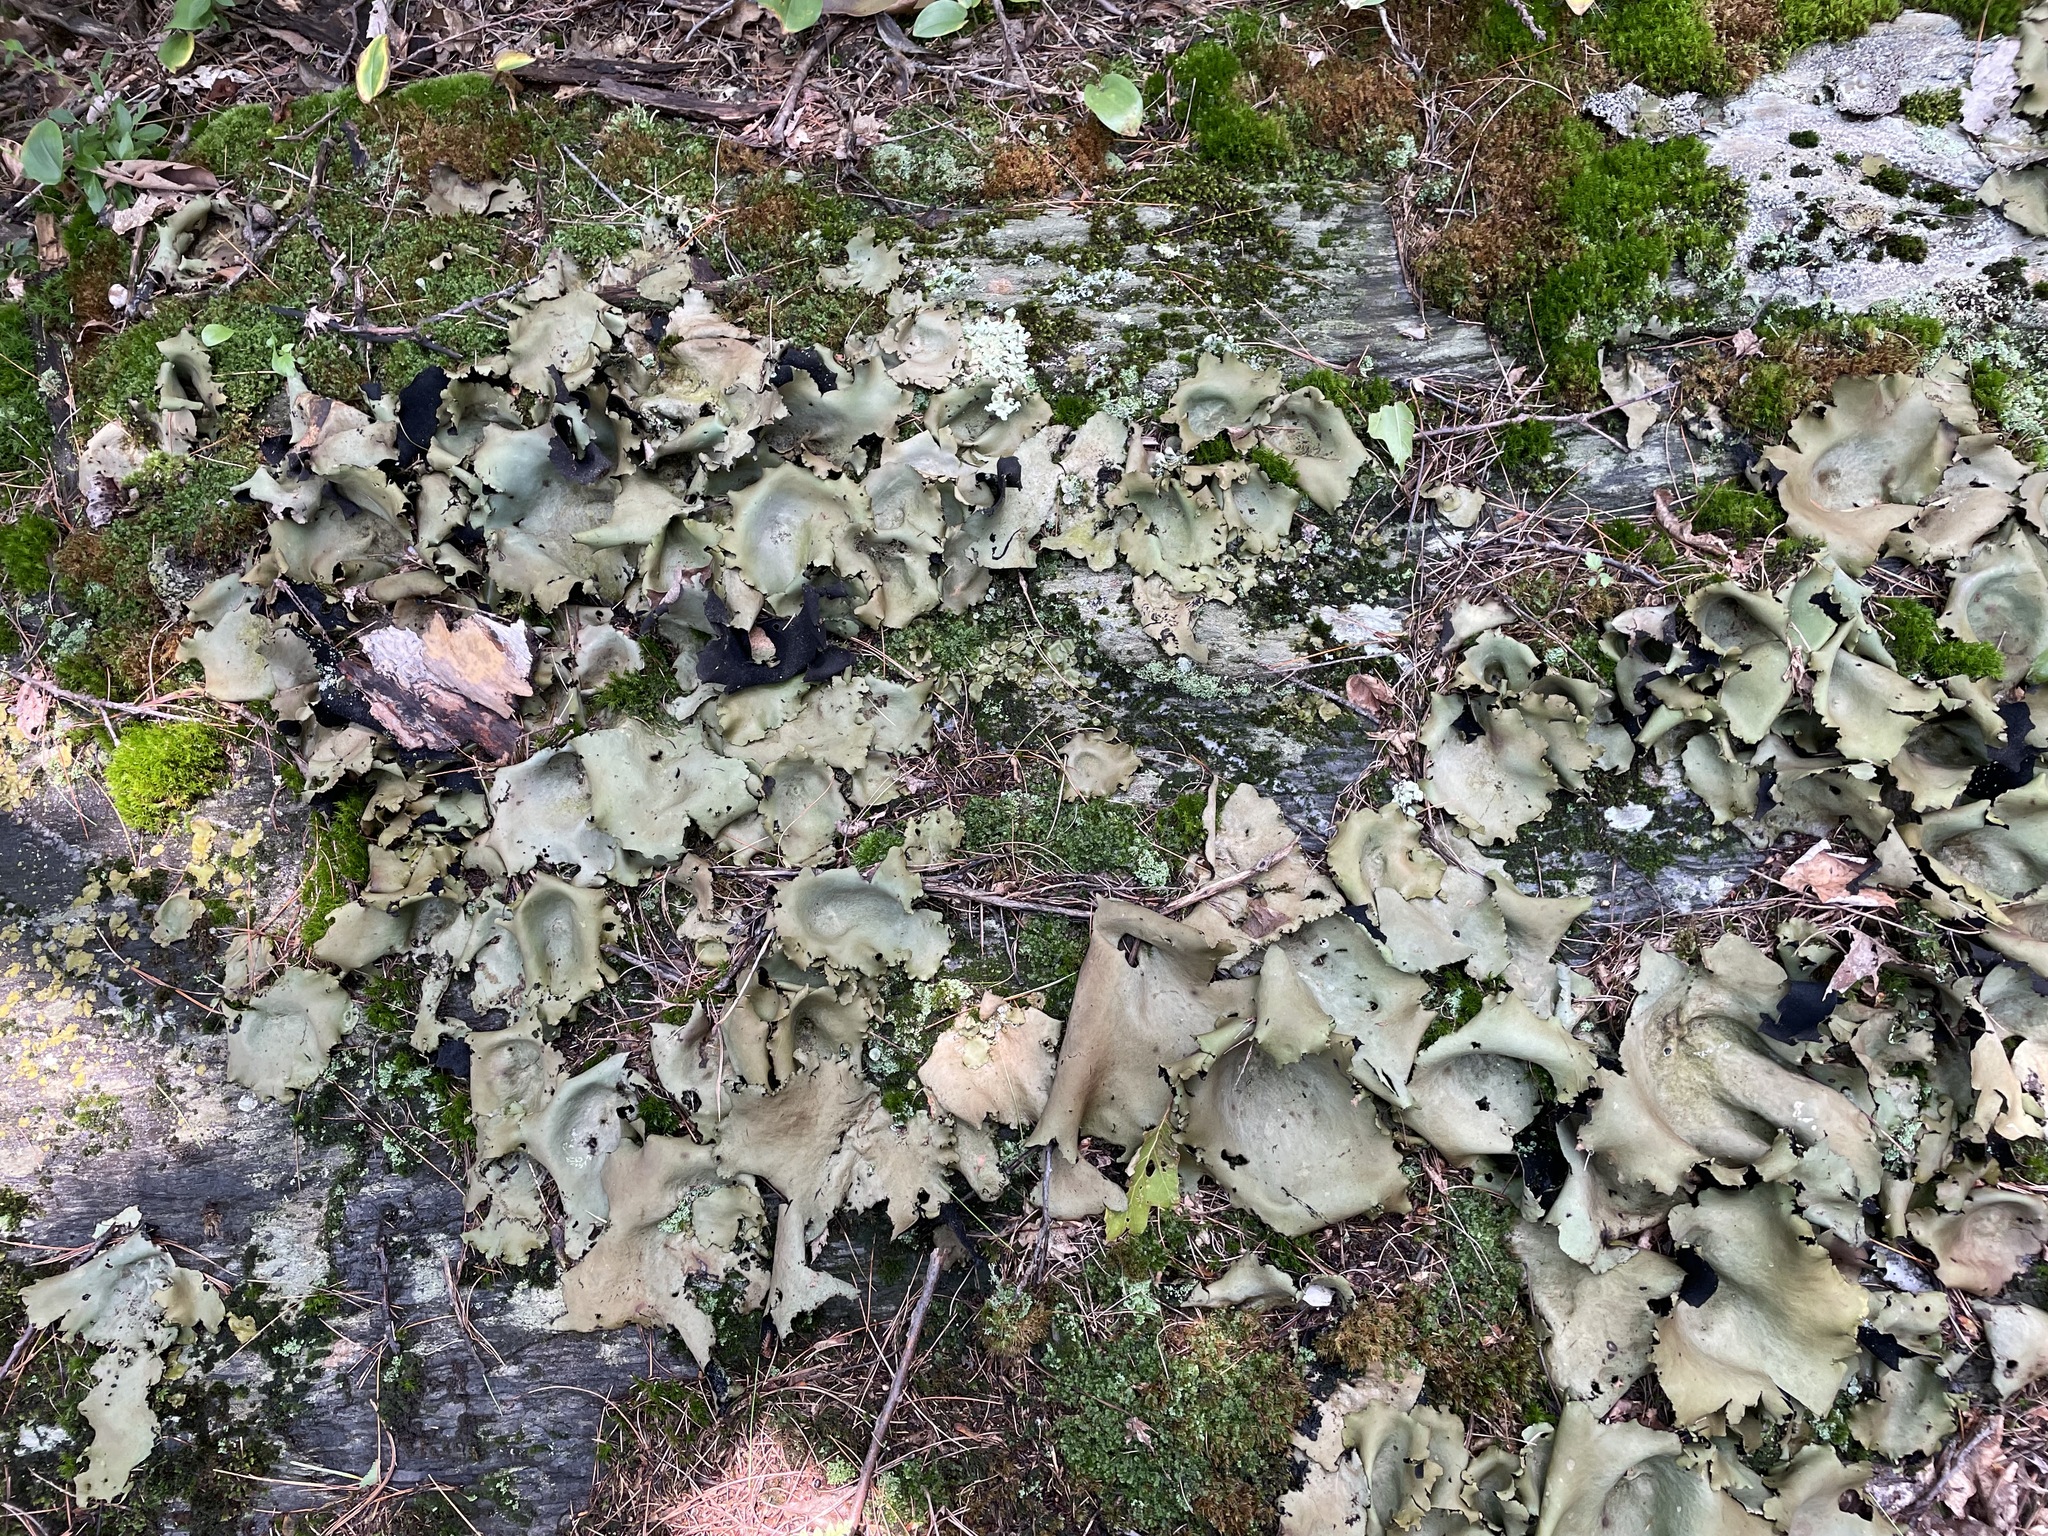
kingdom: Fungi
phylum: Ascomycota
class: Lecanoromycetes
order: Umbilicariales
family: Umbilicariaceae
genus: Umbilicaria
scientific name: Umbilicaria mammulata
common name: Smooth rock tripe
